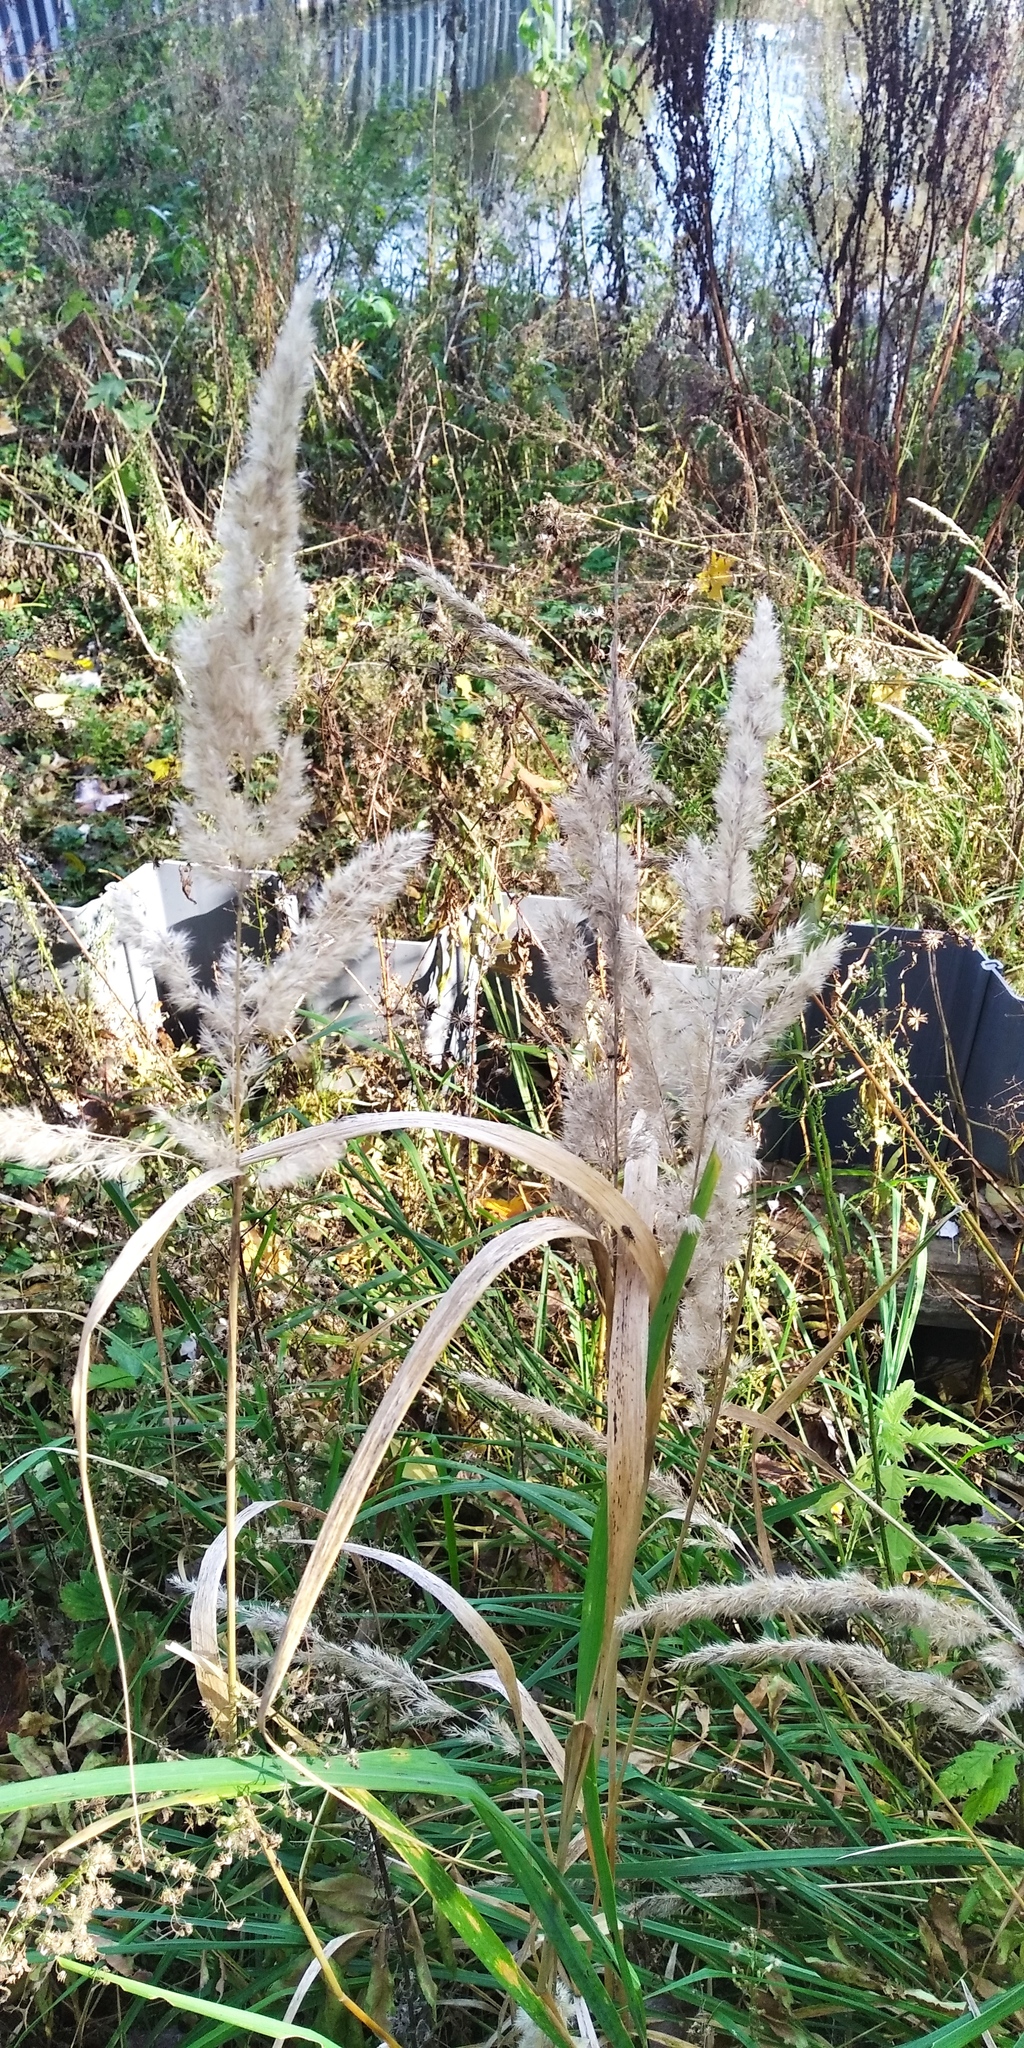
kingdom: Plantae
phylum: Tracheophyta
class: Liliopsida
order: Poales
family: Poaceae
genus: Calamagrostis
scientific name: Calamagrostis epigejos
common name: Wood small-reed
